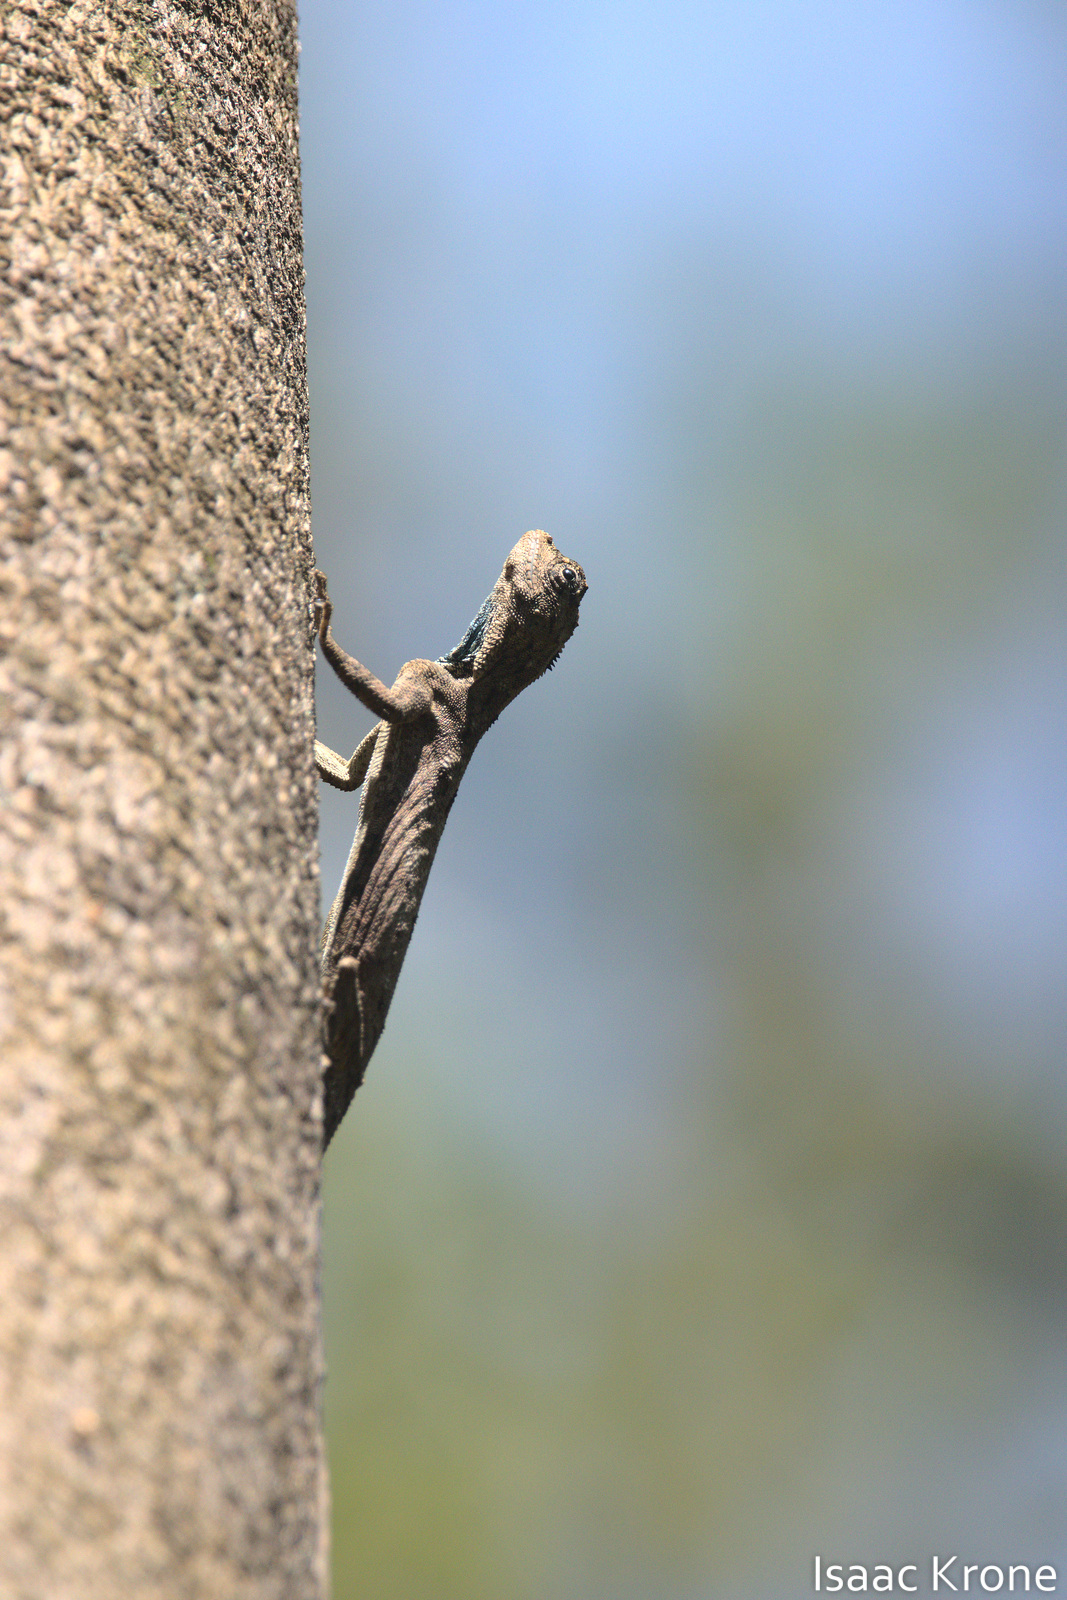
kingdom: Animalia
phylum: Chordata
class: Squamata
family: Agamidae
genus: Draco
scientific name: Draco volans
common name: Common flying dragon
